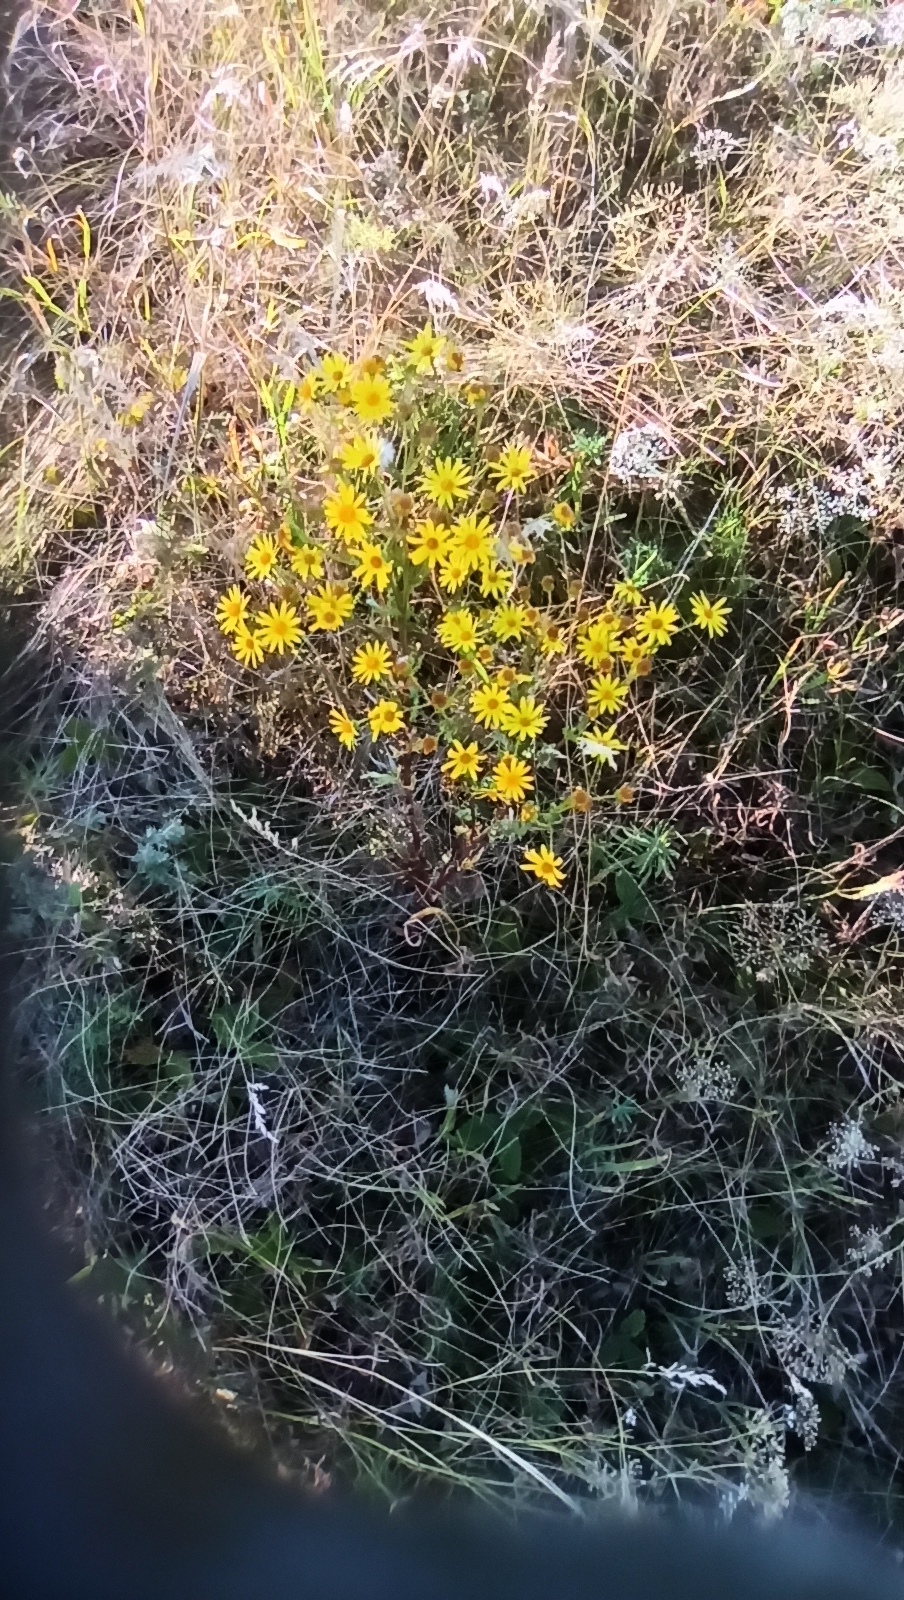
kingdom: Plantae
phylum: Tracheophyta
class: Magnoliopsida
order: Asterales
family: Asteraceae
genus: Jacobaea
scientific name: Jacobaea vulgaris
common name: Stinking willie
